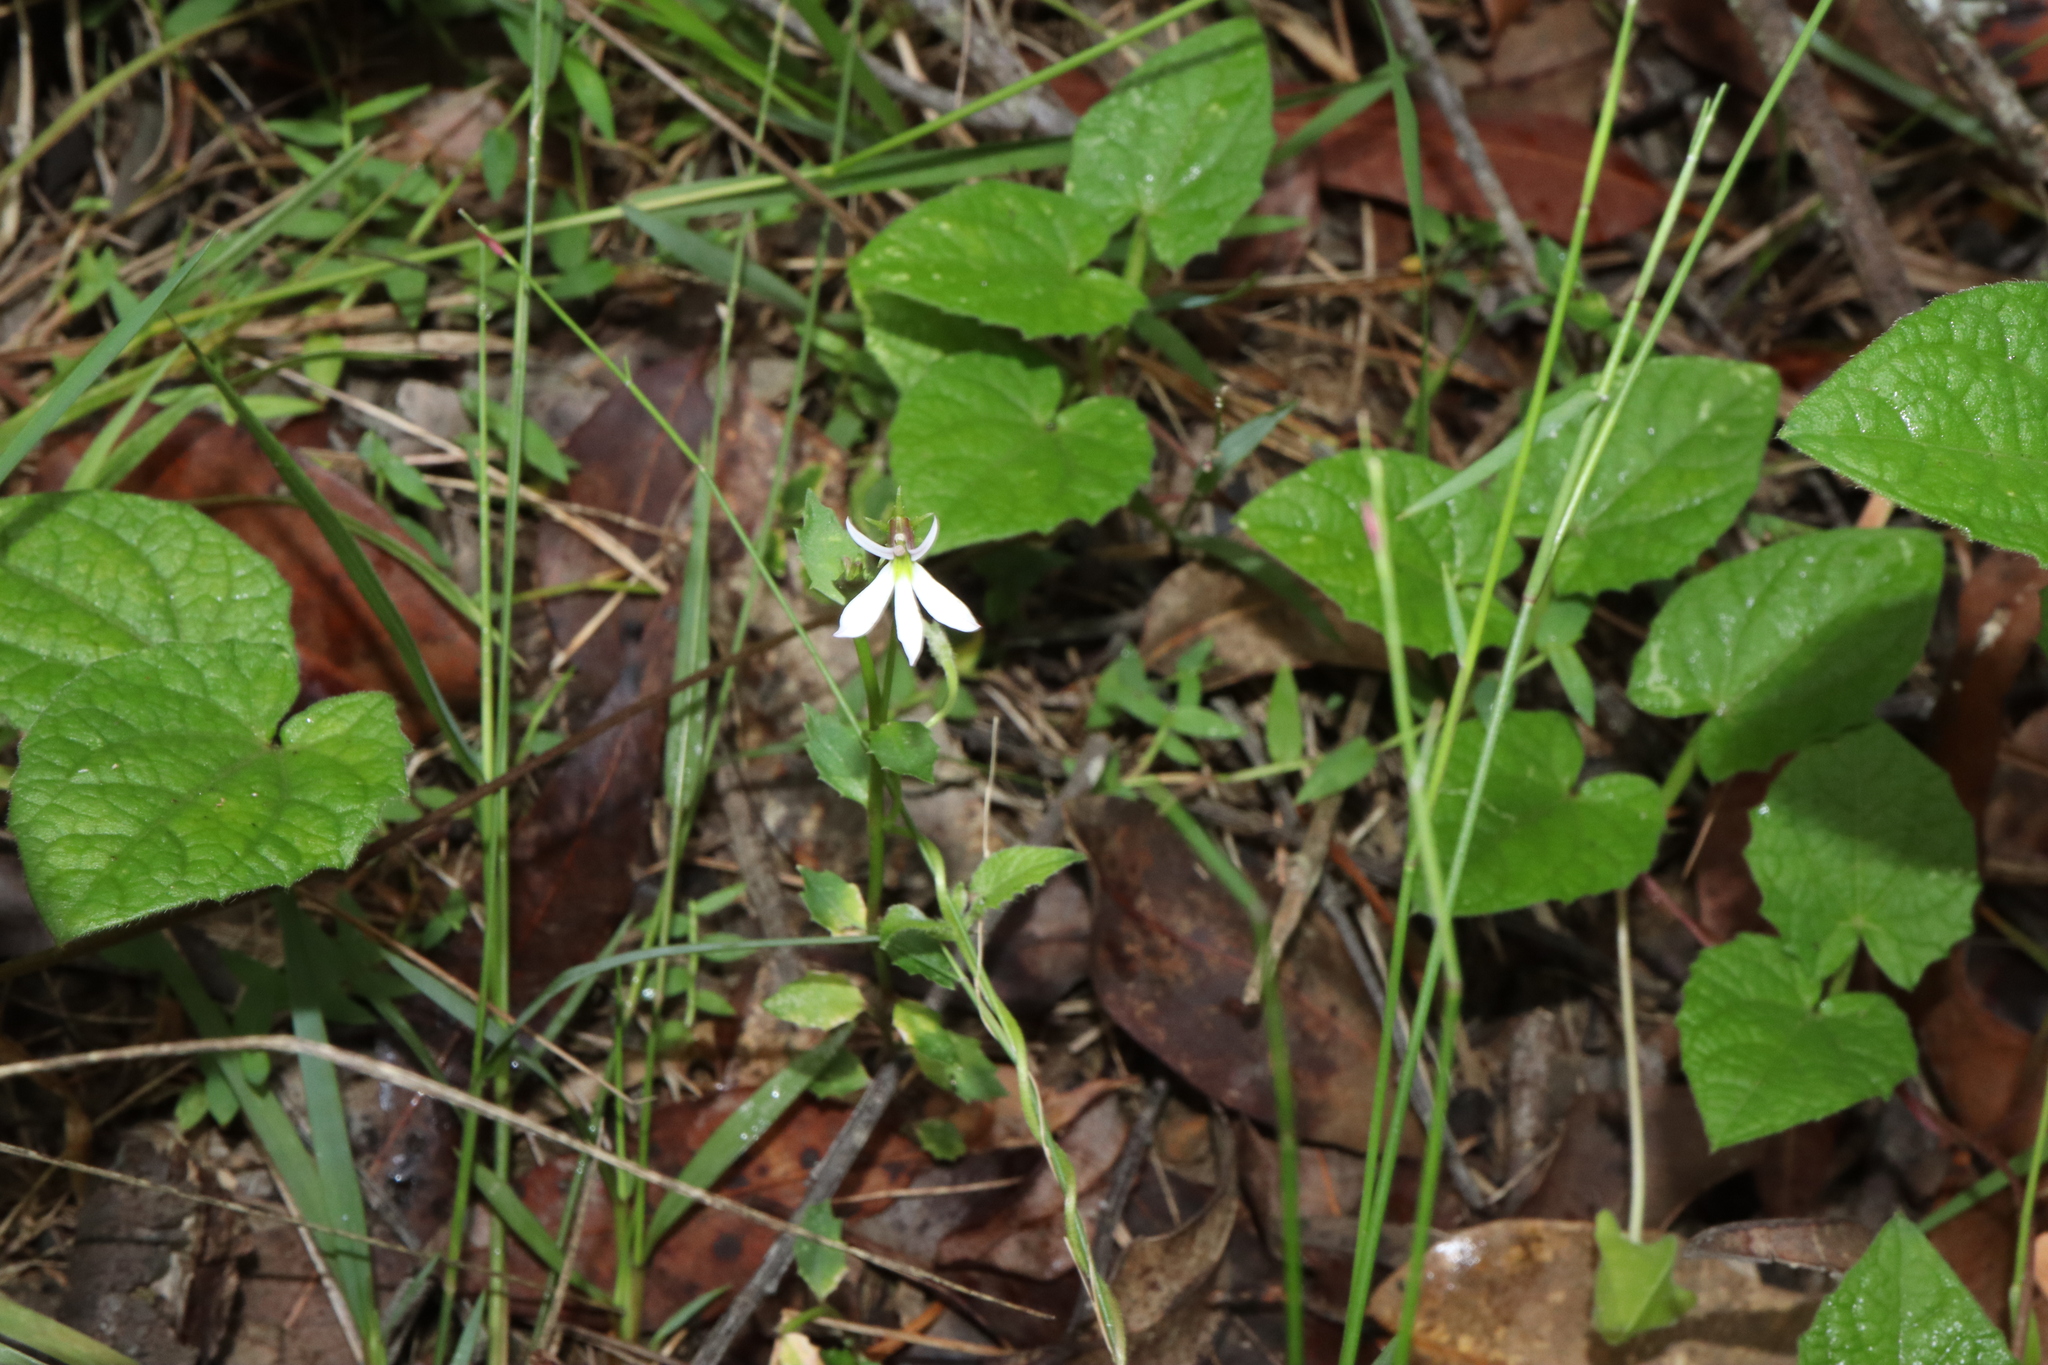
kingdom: Plantae
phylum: Tracheophyta
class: Magnoliopsida
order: Asterales
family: Campanulaceae
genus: Lobelia
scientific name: Lobelia purpurascens
